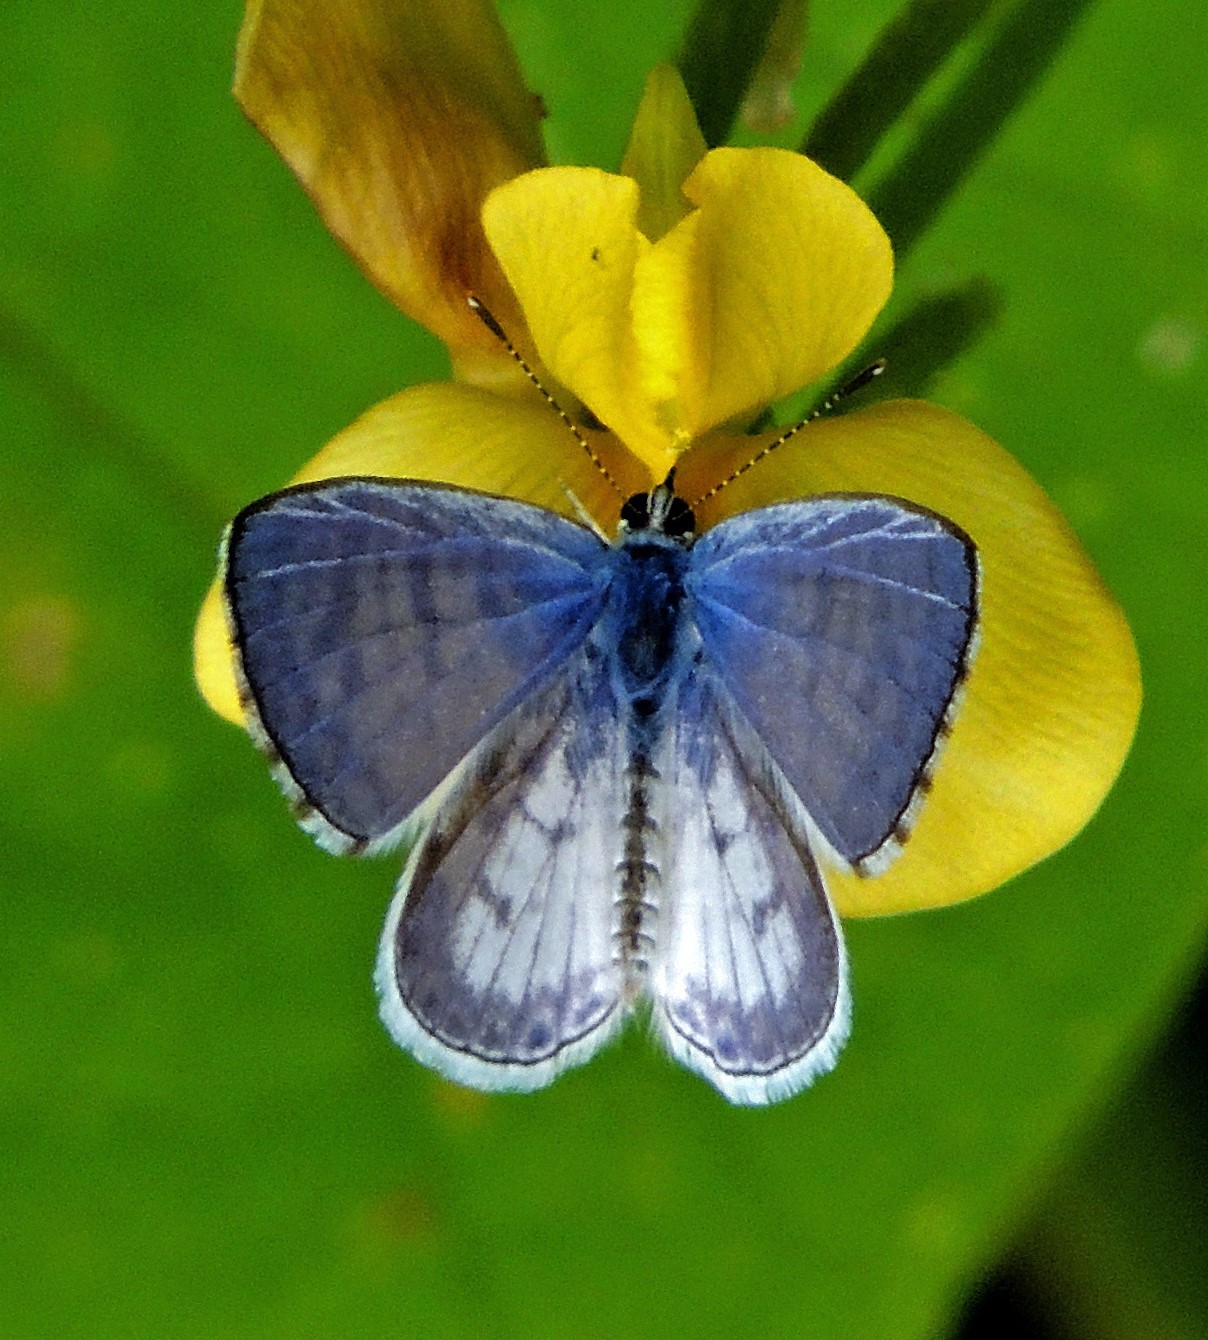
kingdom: Animalia
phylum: Arthropoda
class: Insecta
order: Lepidoptera
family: Lycaenidae
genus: Leptotes
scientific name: Leptotes cassius
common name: Cassius blue
